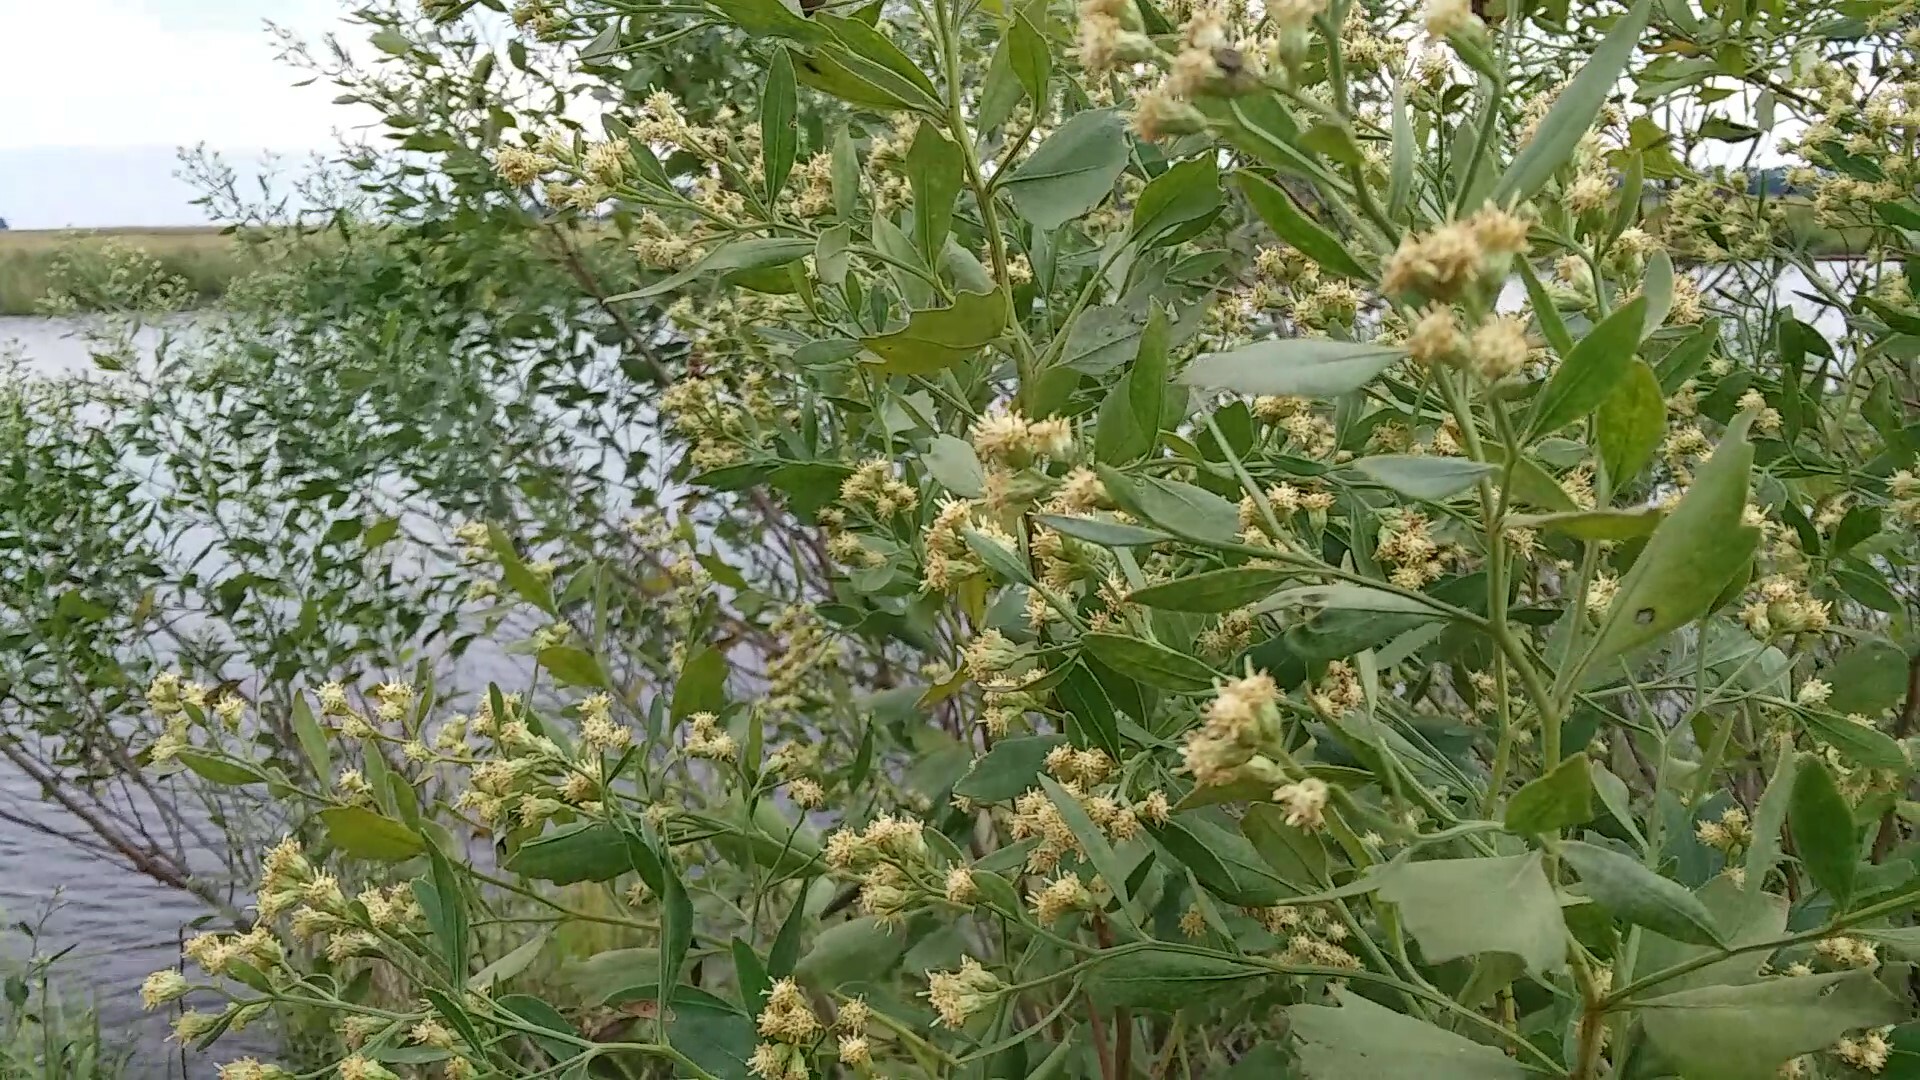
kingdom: Plantae
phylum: Tracheophyta
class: Magnoliopsida
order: Asterales
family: Asteraceae
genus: Baccharis
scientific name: Baccharis halimifolia
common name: Eastern baccharis
